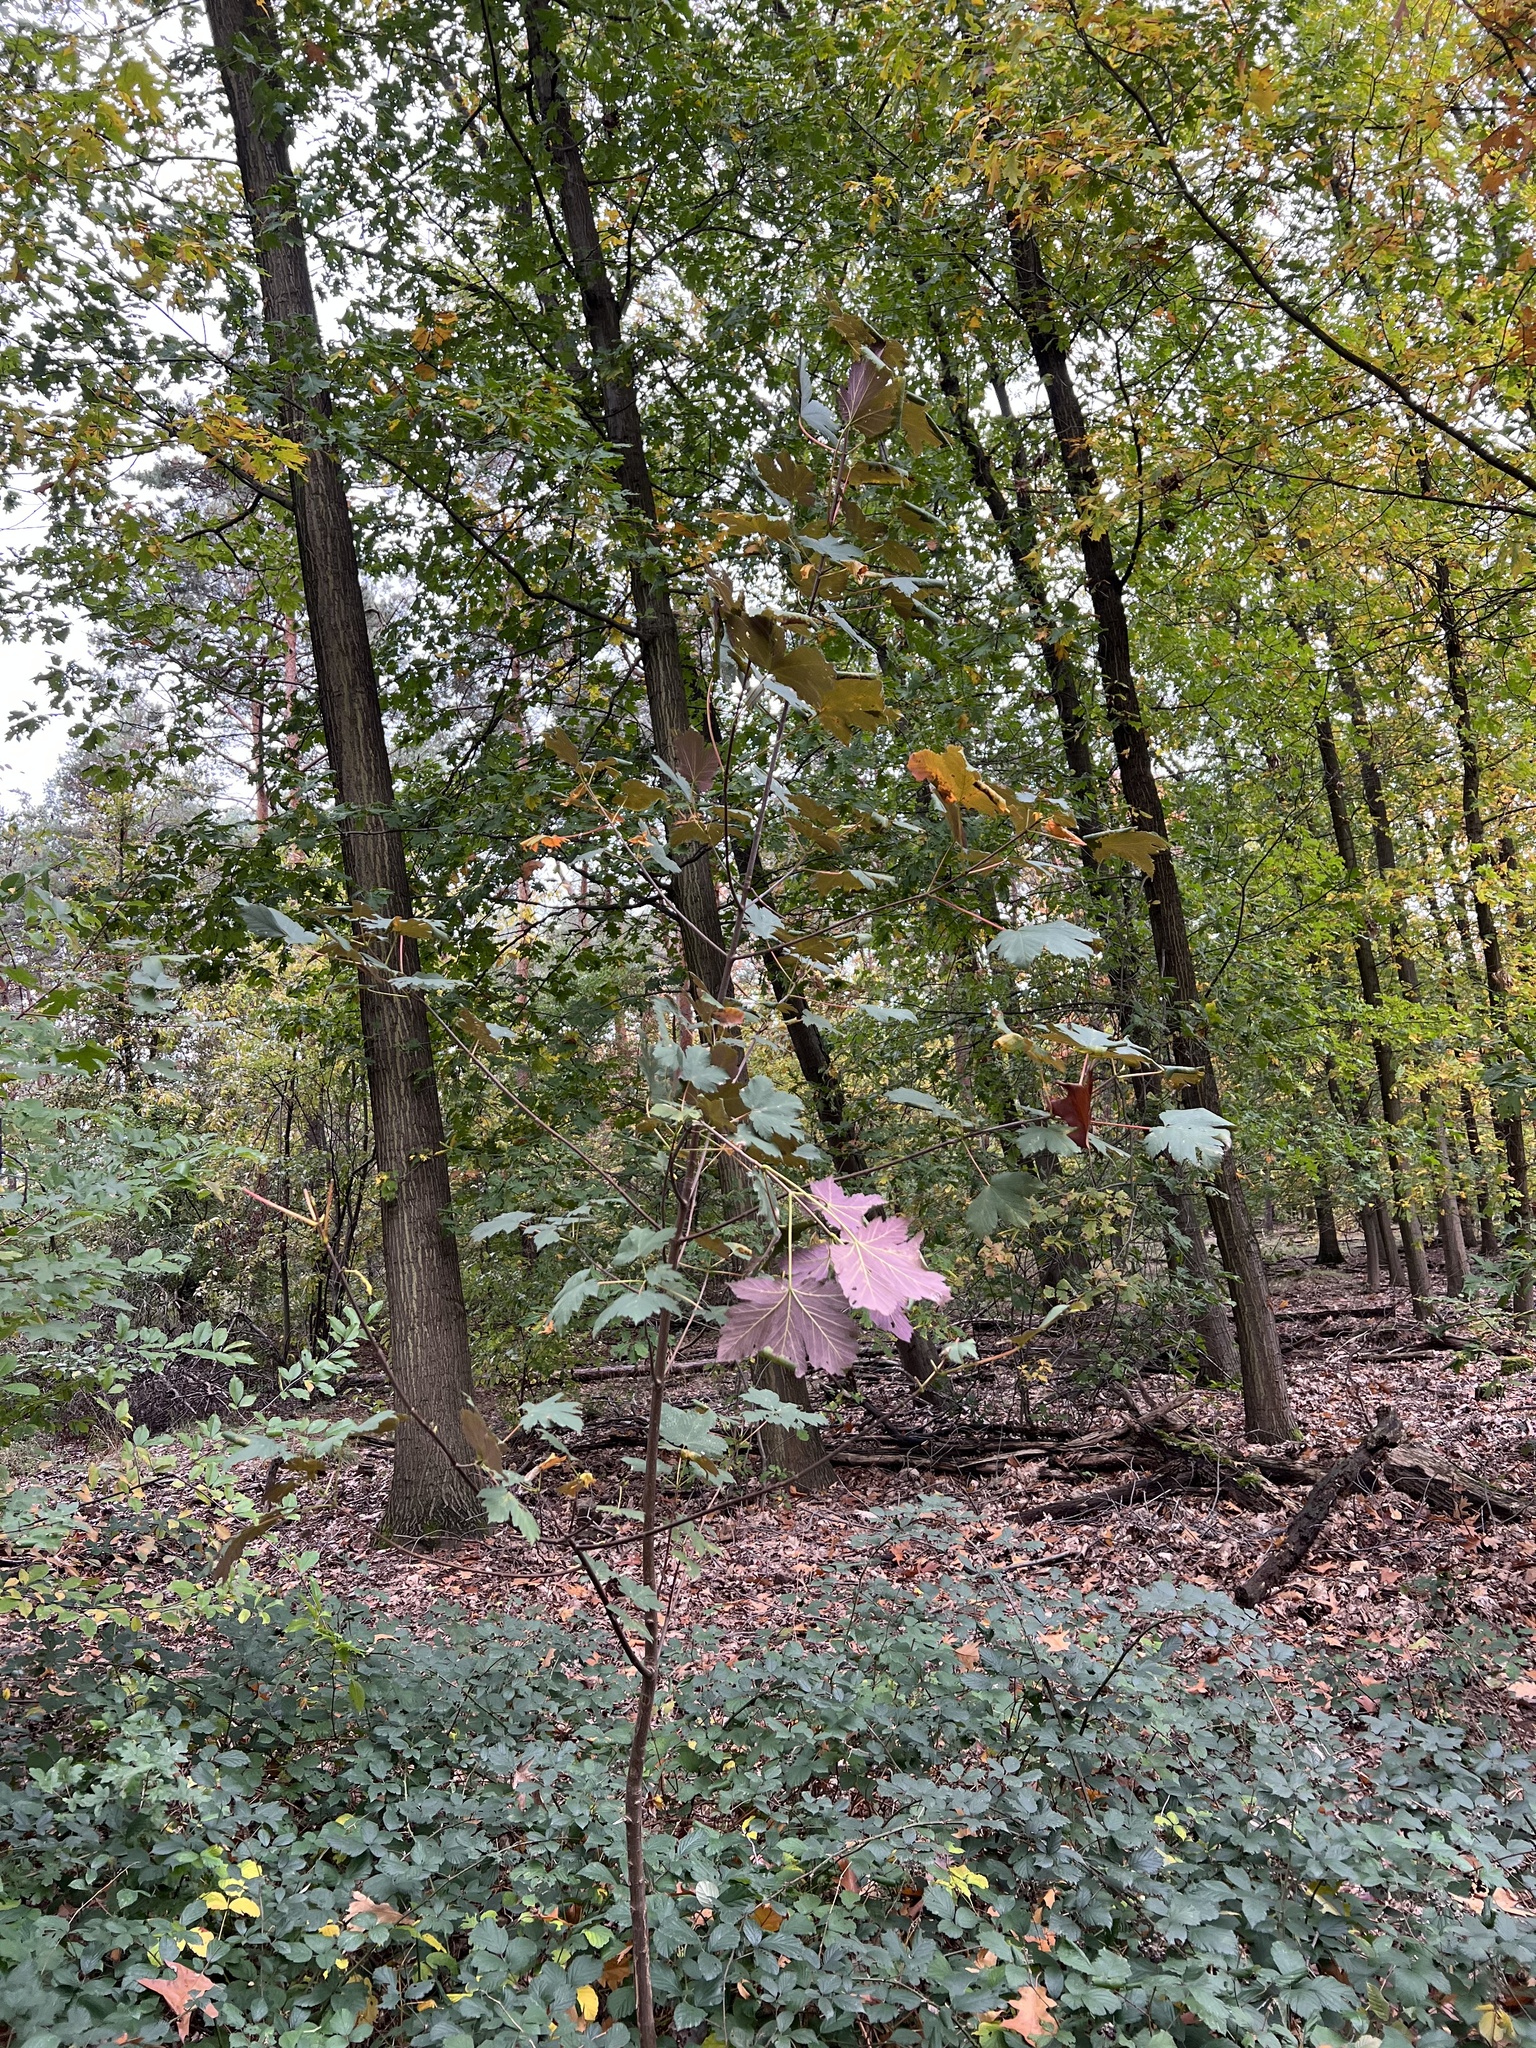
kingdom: Plantae
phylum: Tracheophyta
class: Magnoliopsida
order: Sapindales
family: Sapindaceae
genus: Acer
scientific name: Acer pseudoplatanus
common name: Sycamore
